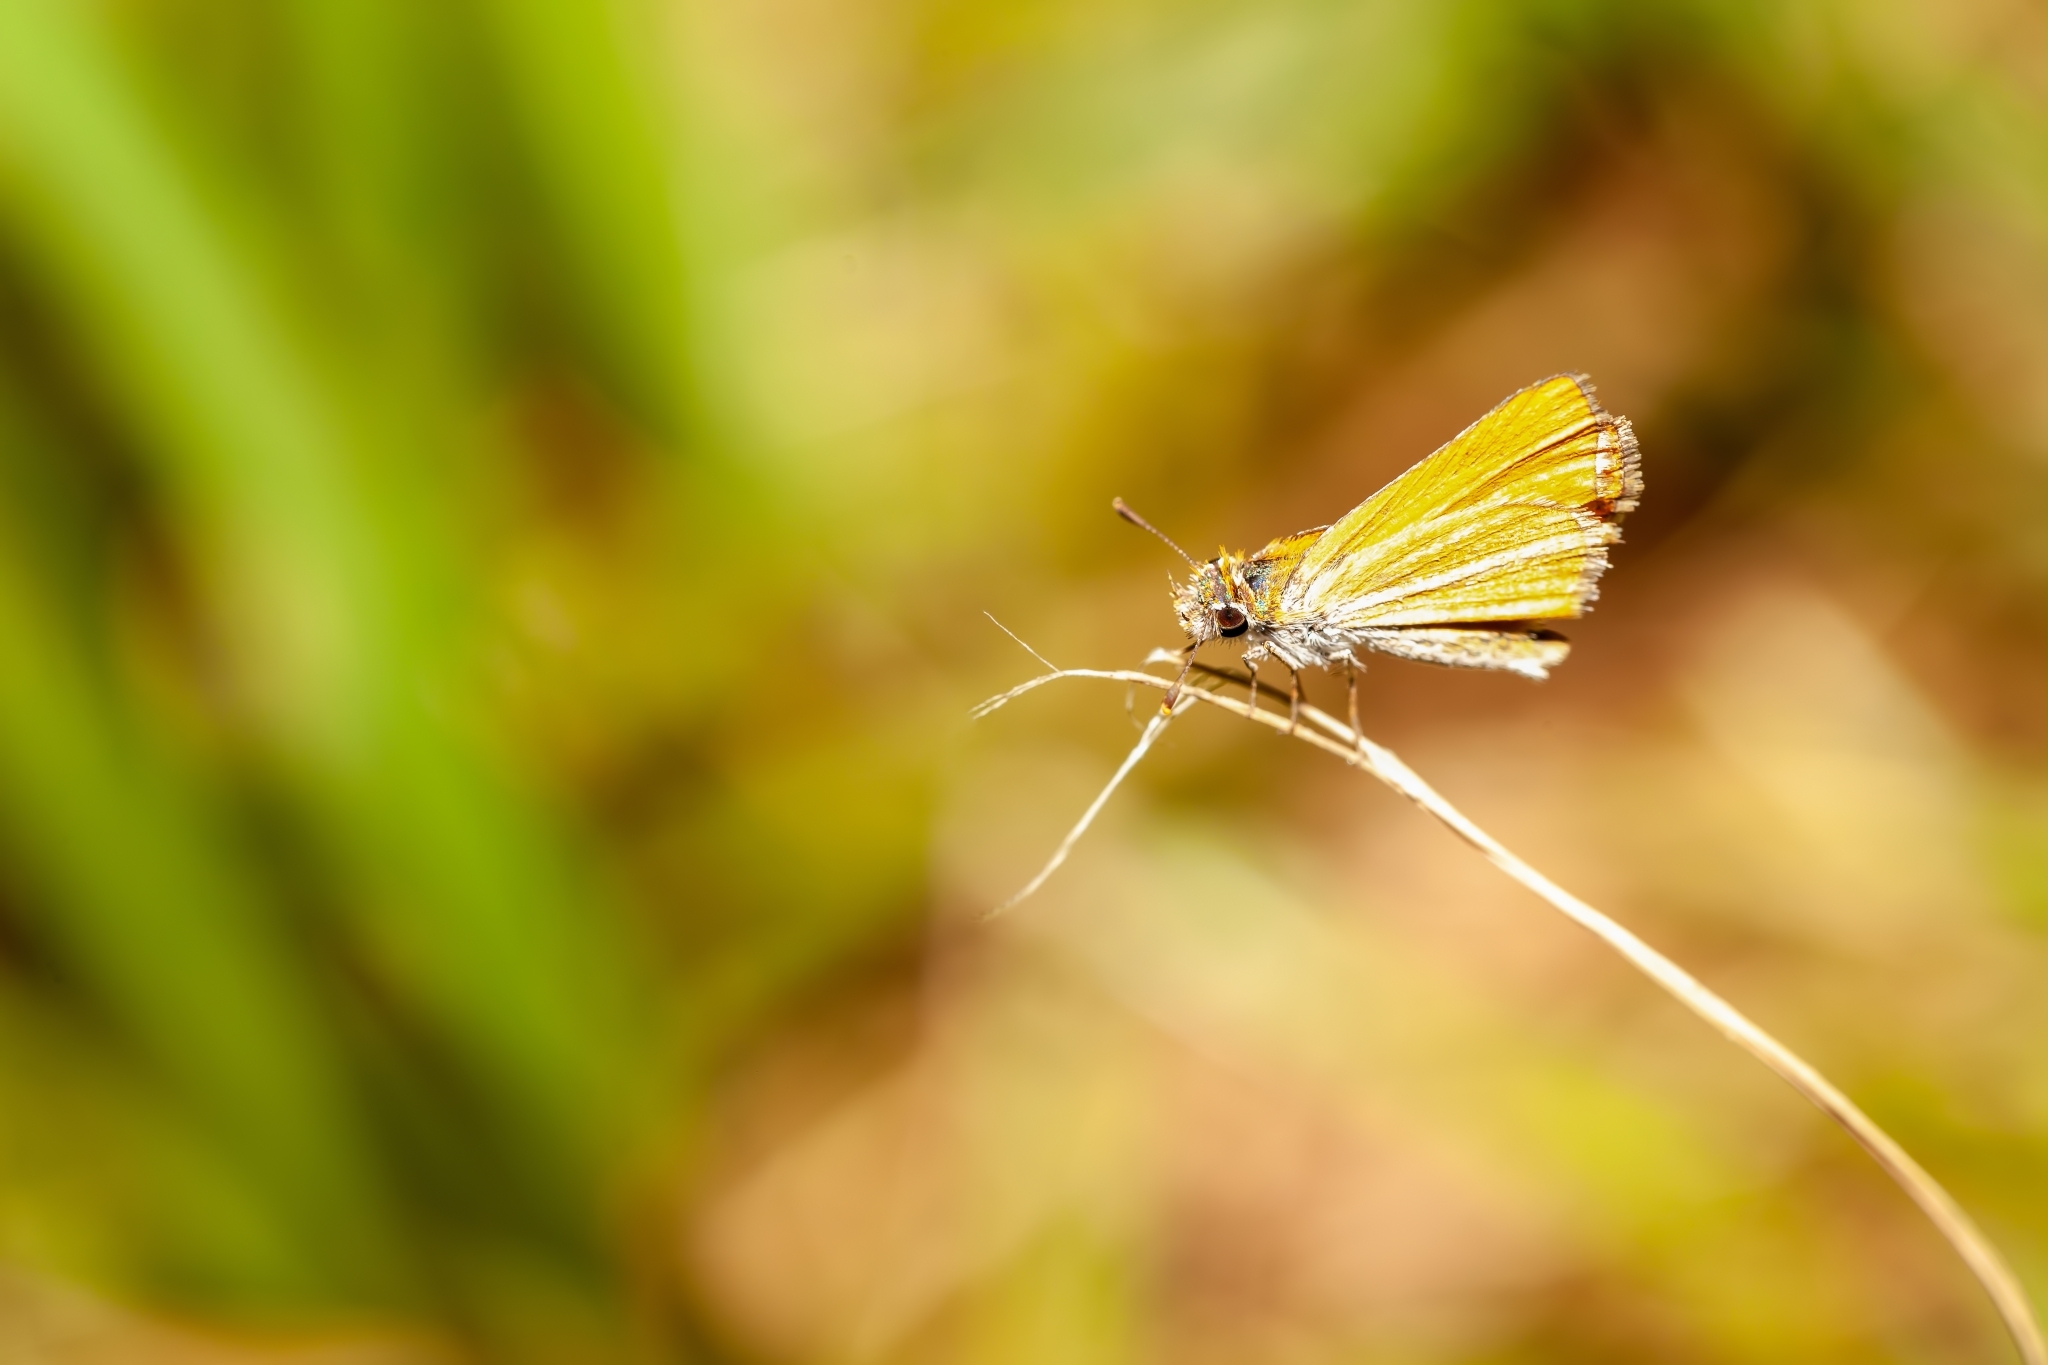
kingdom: Animalia
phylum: Arthropoda
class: Insecta
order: Lepidoptera
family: Hesperiidae
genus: Copaeodes
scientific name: Copaeodes minima
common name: Southern skipperling
